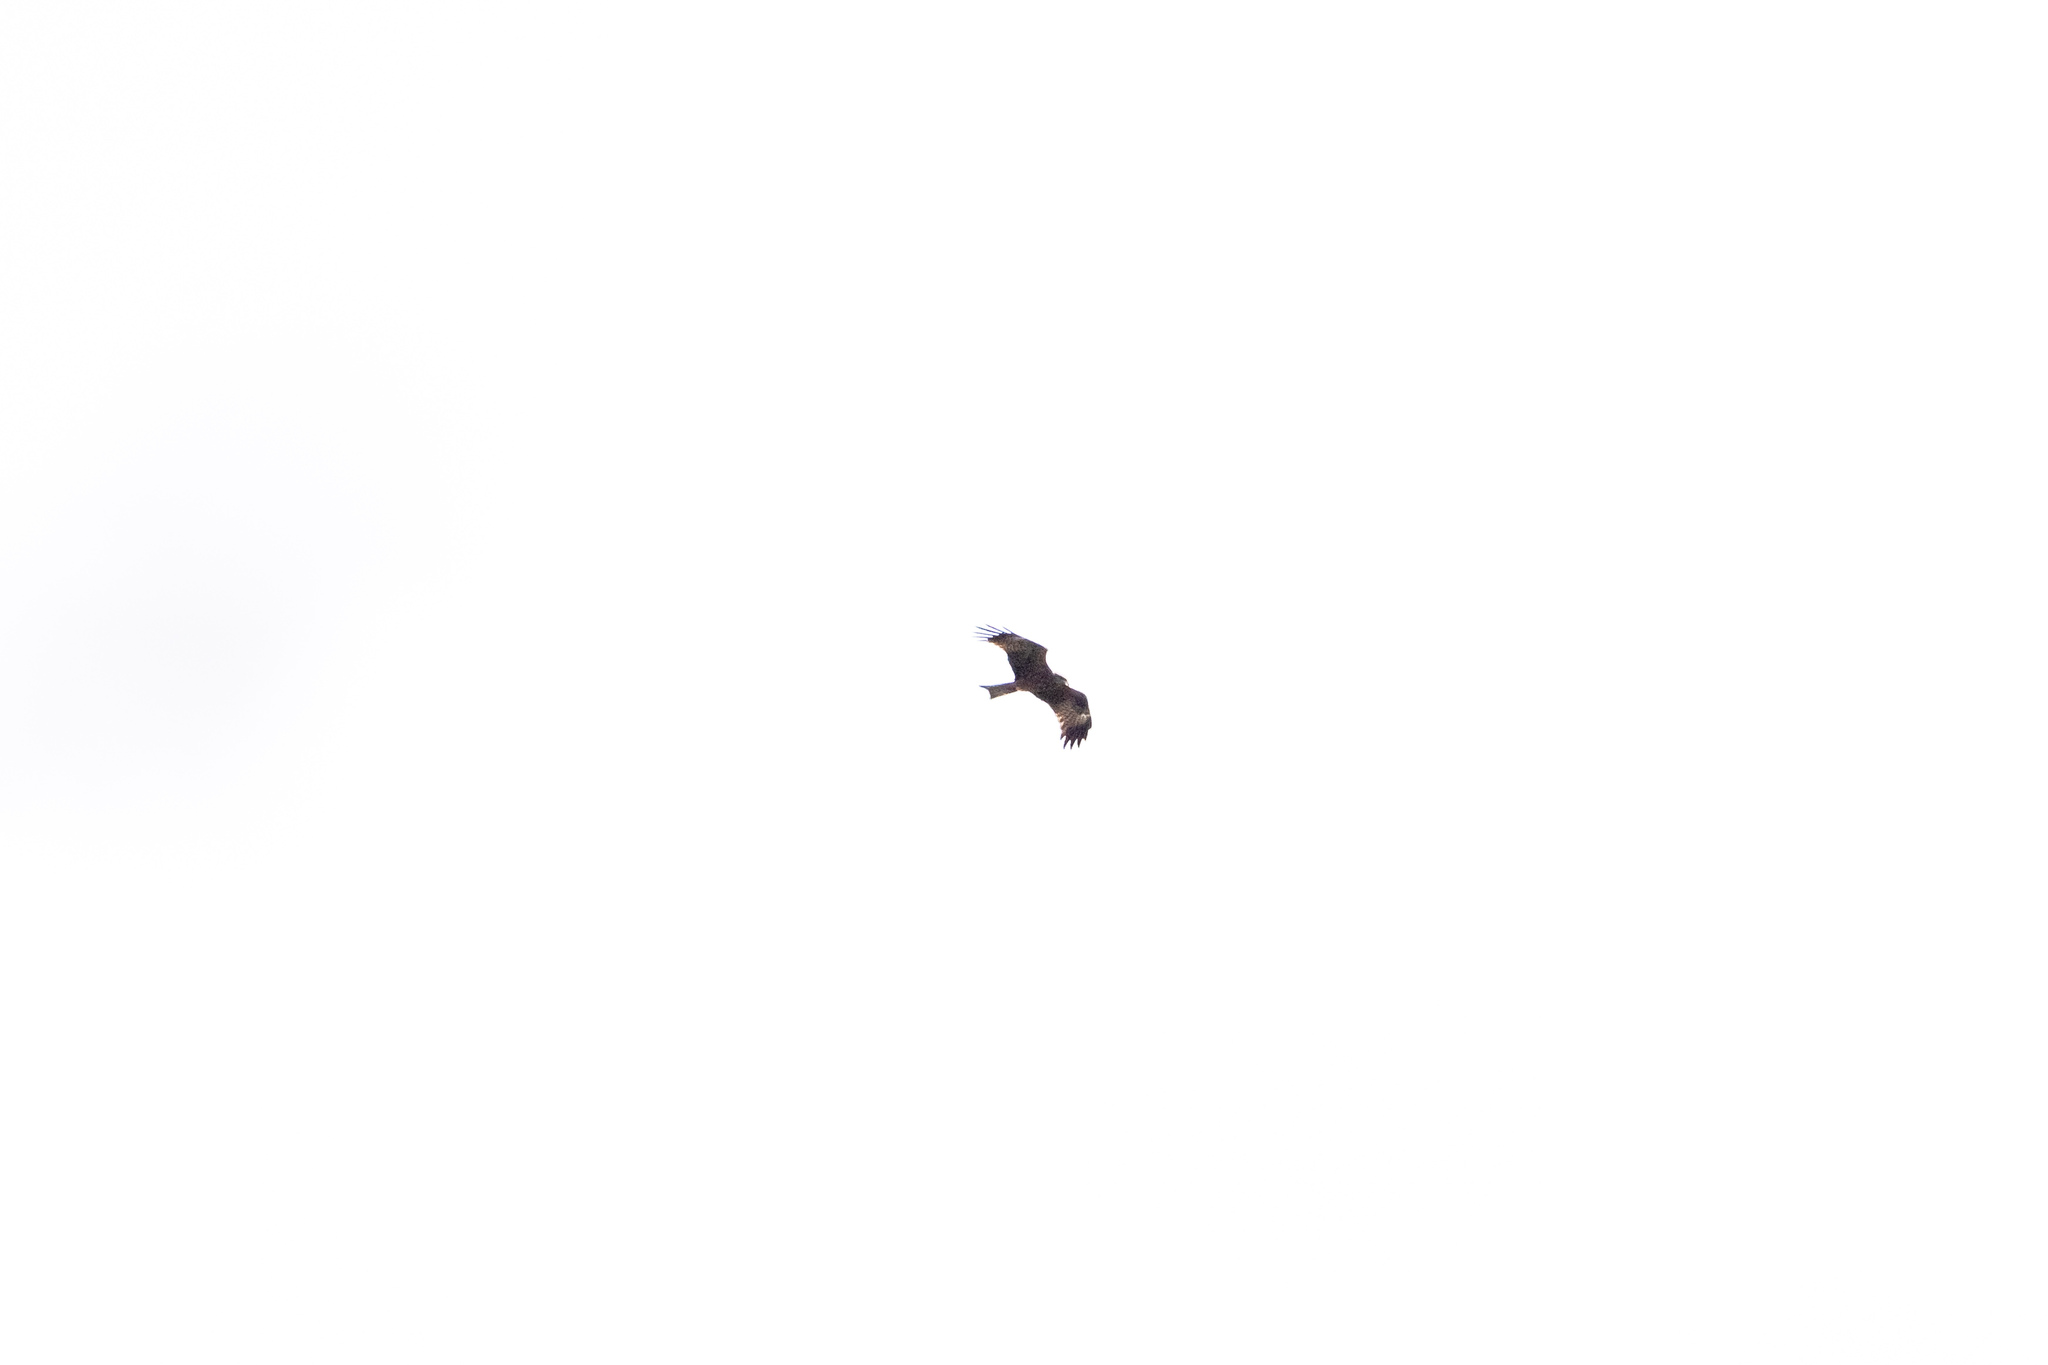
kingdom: Animalia
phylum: Chordata
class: Aves
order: Accipitriformes
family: Accipitridae
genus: Milvus
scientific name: Milvus milvus
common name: Red kite
